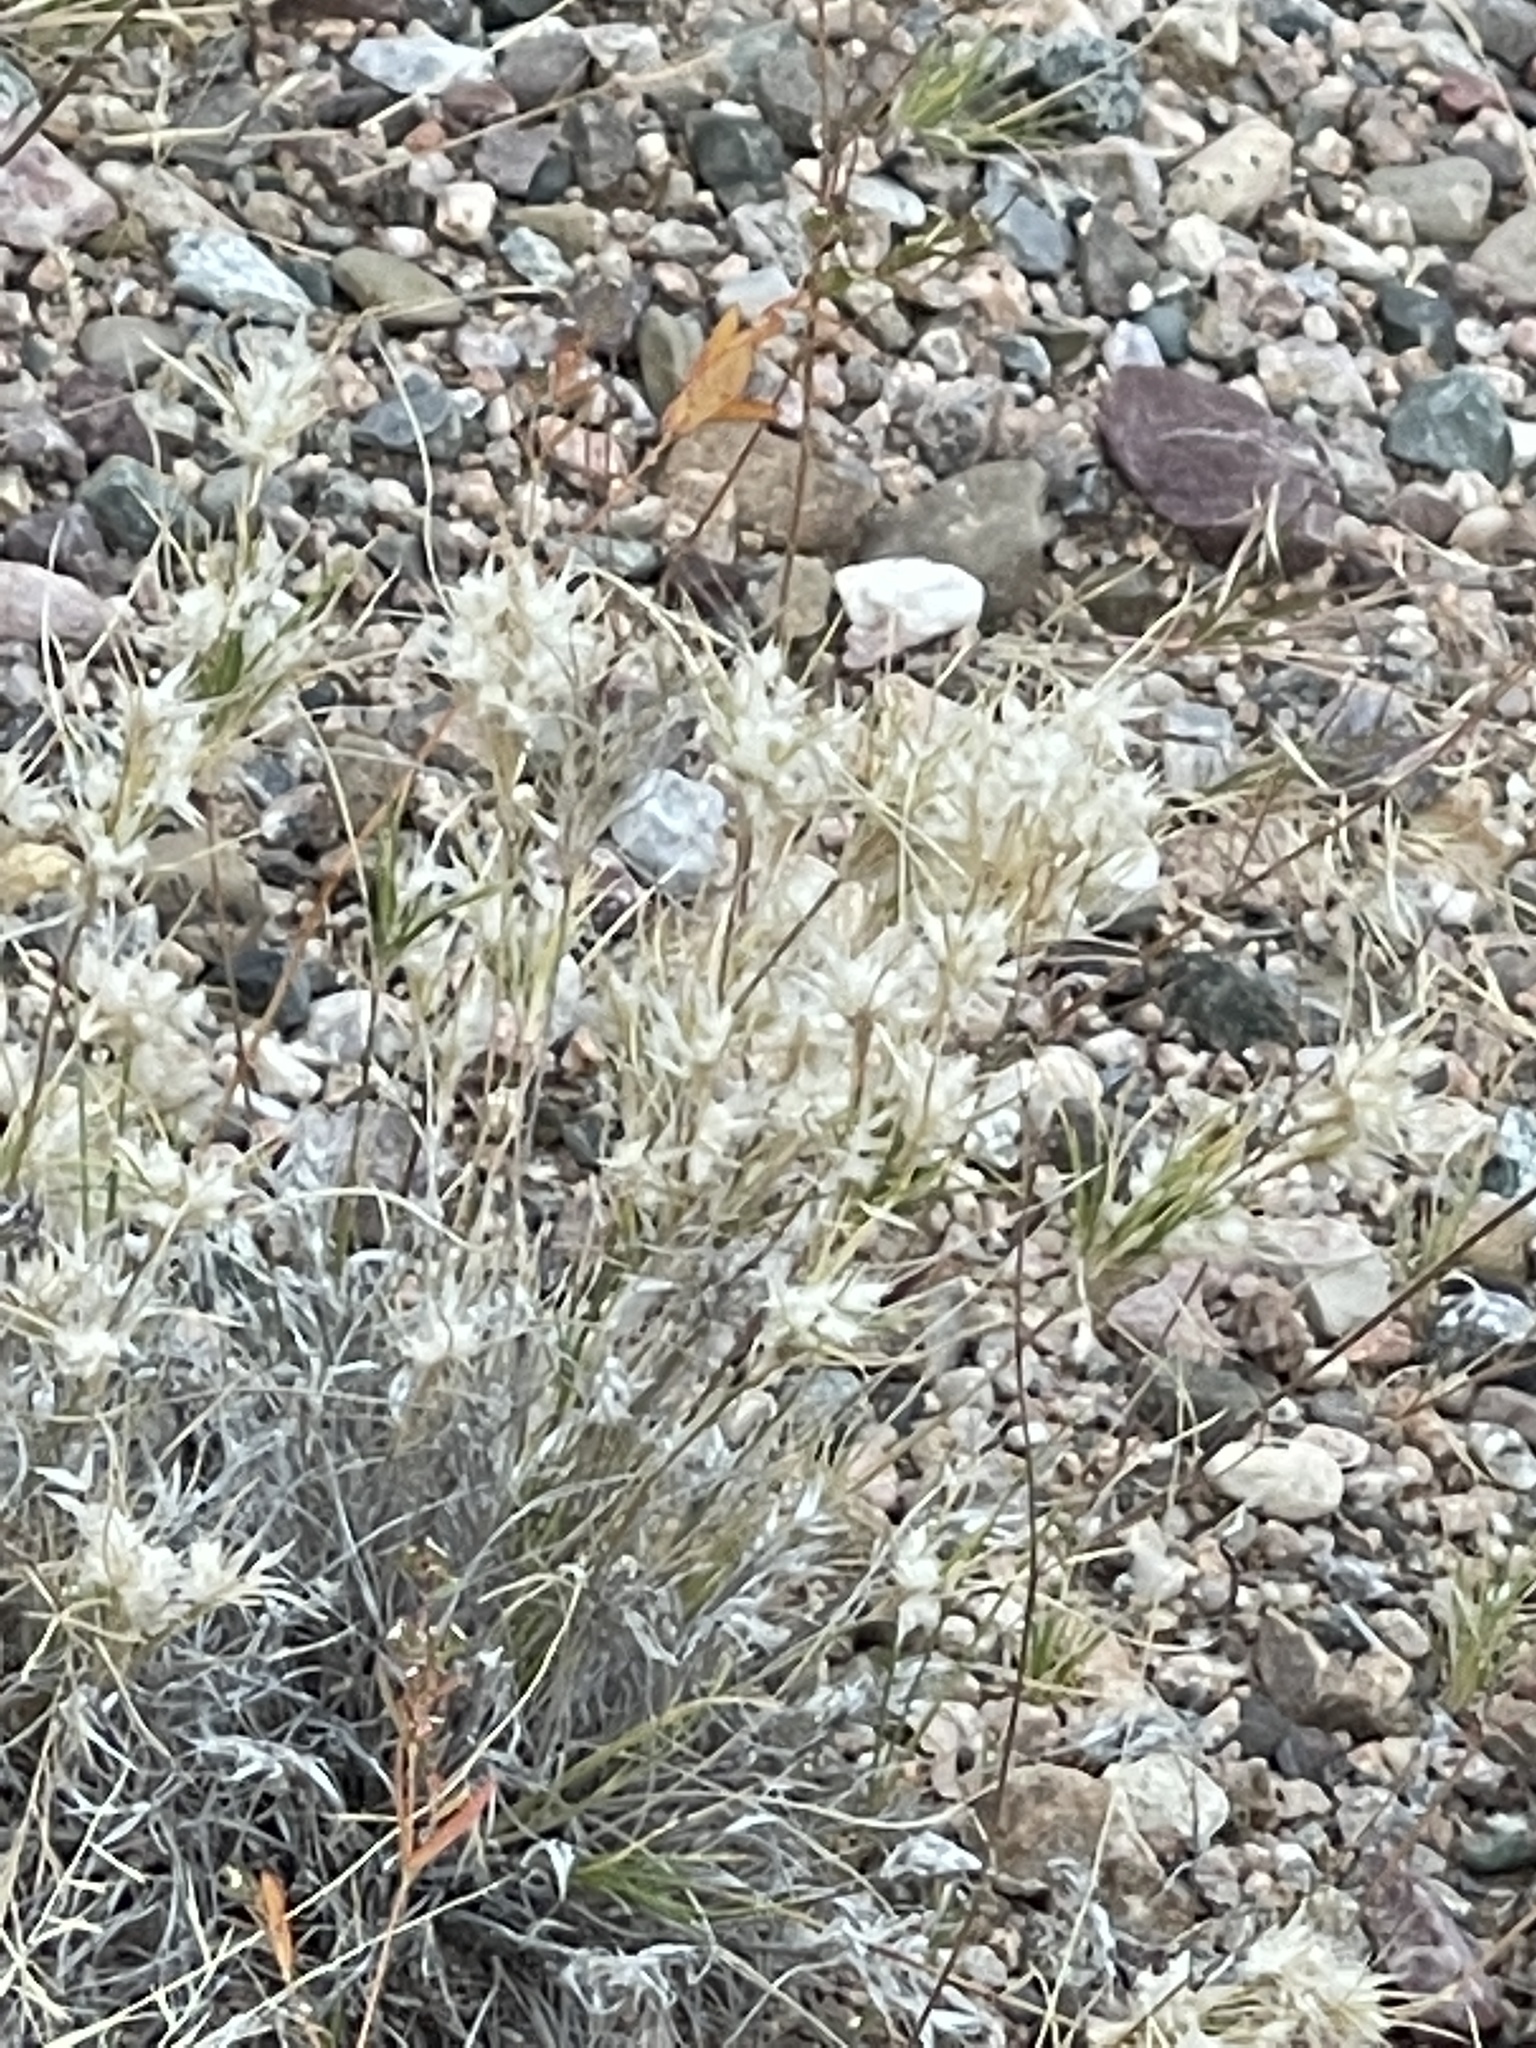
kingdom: Plantae
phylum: Tracheophyta
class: Liliopsida
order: Poales
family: Poaceae
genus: Dasyochloa
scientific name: Dasyochloa pulchella
